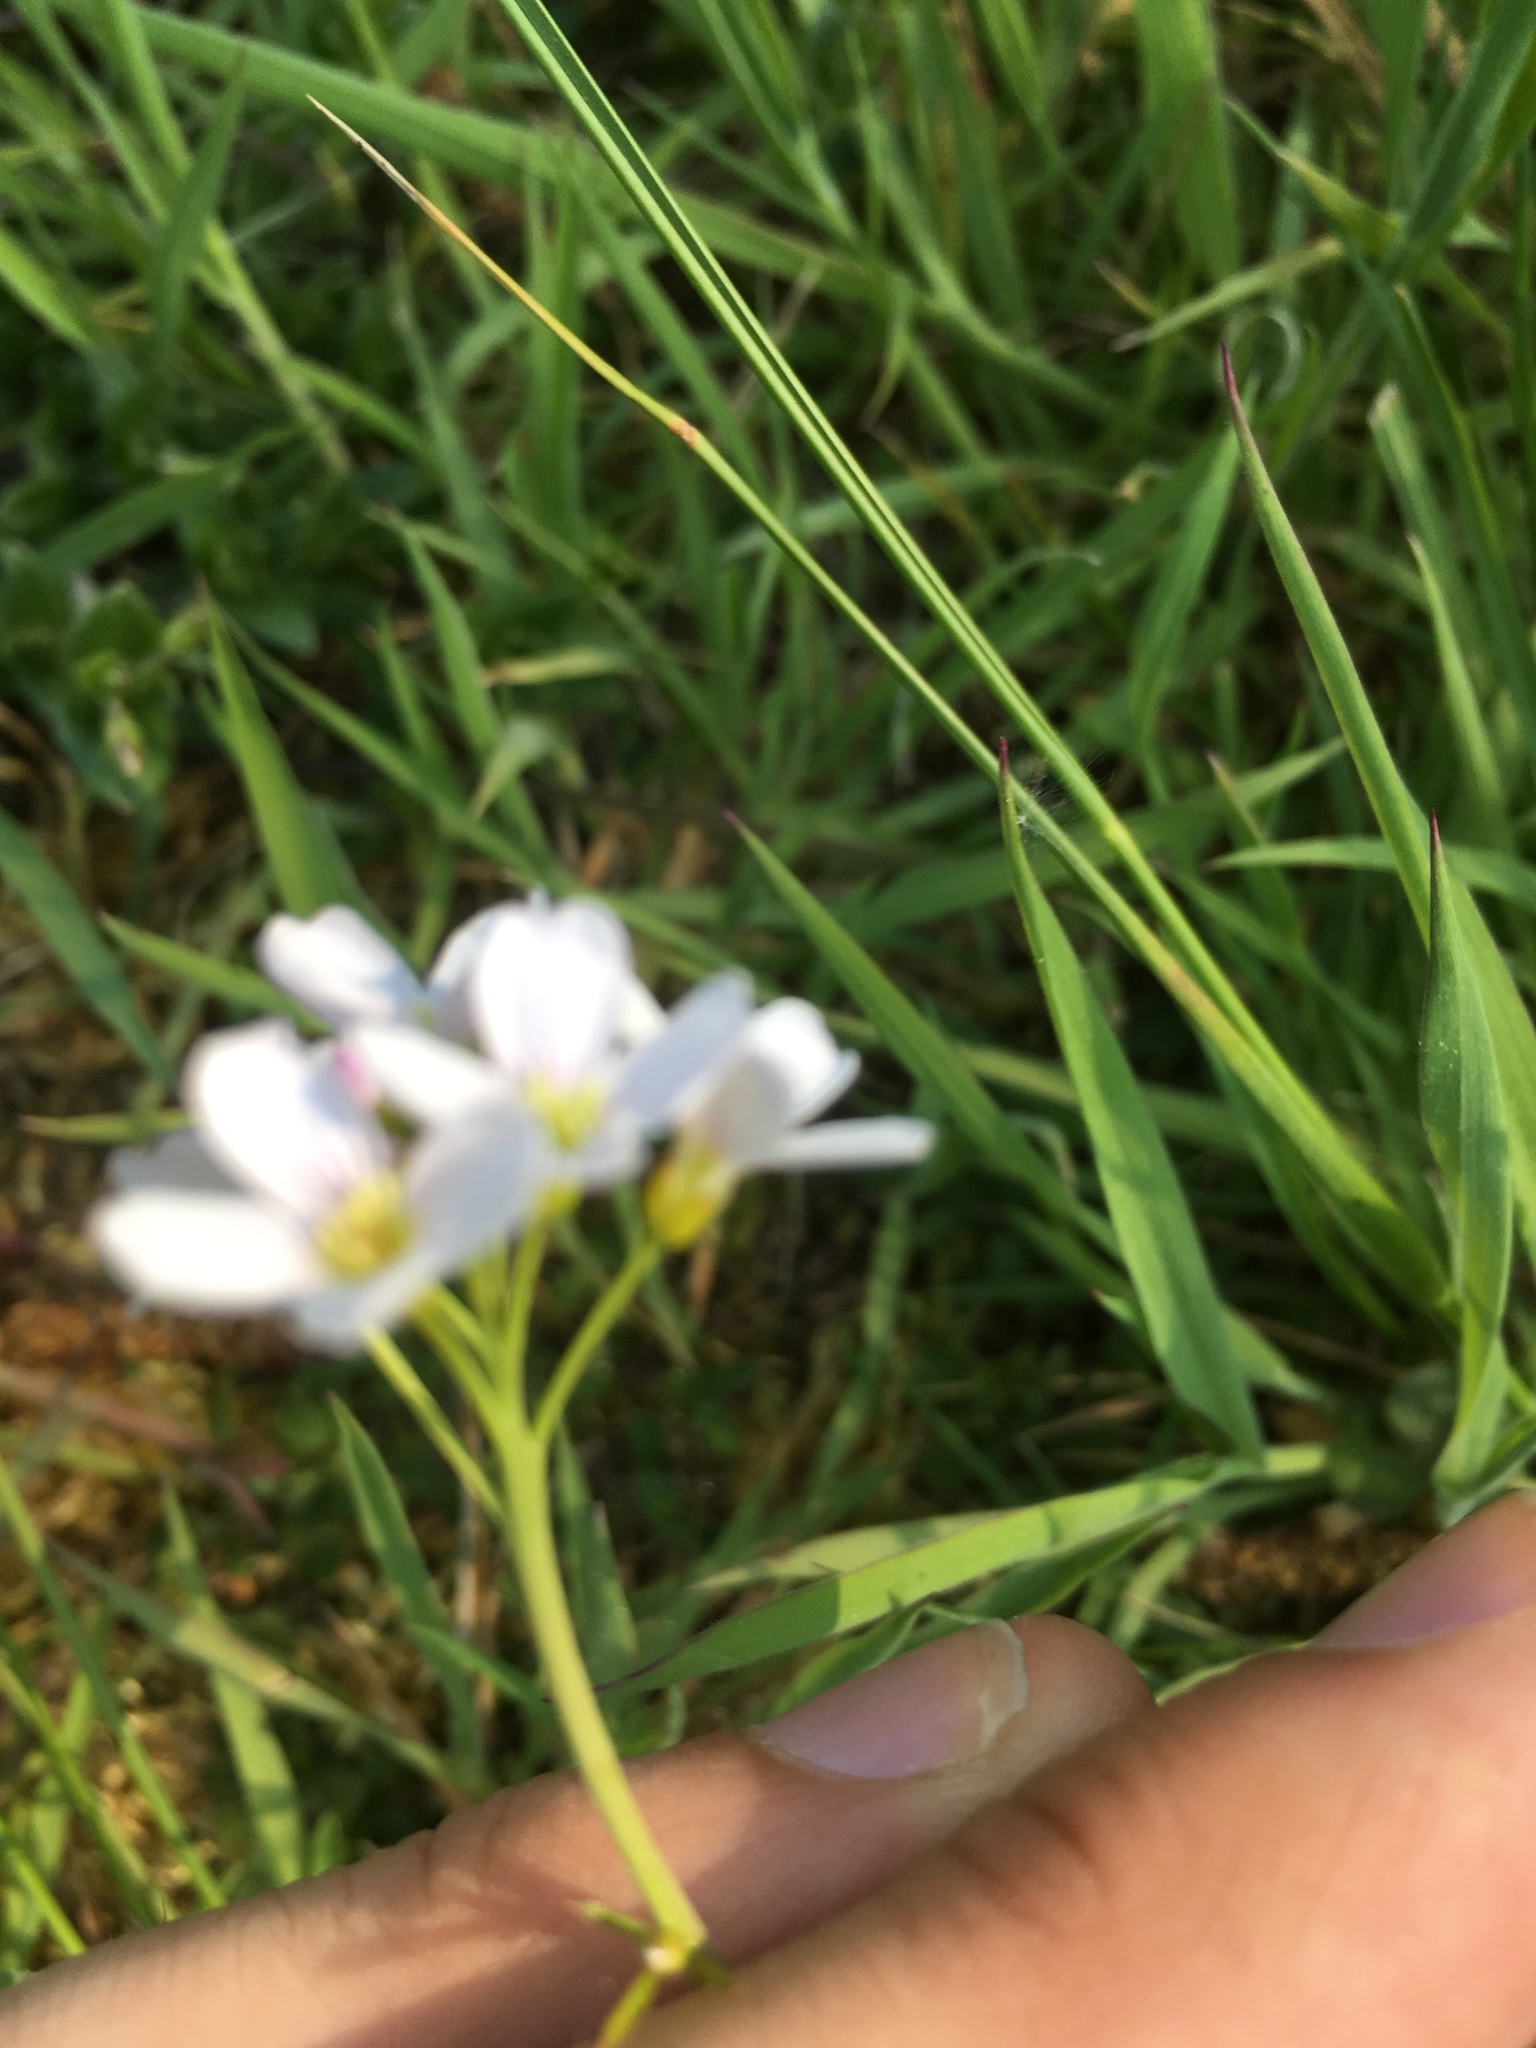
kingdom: Plantae
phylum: Tracheophyta
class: Magnoliopsida
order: Brassicales
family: Brassicaceae
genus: Cardamine
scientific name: Cardamine pratensis
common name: Cuckoo flower
